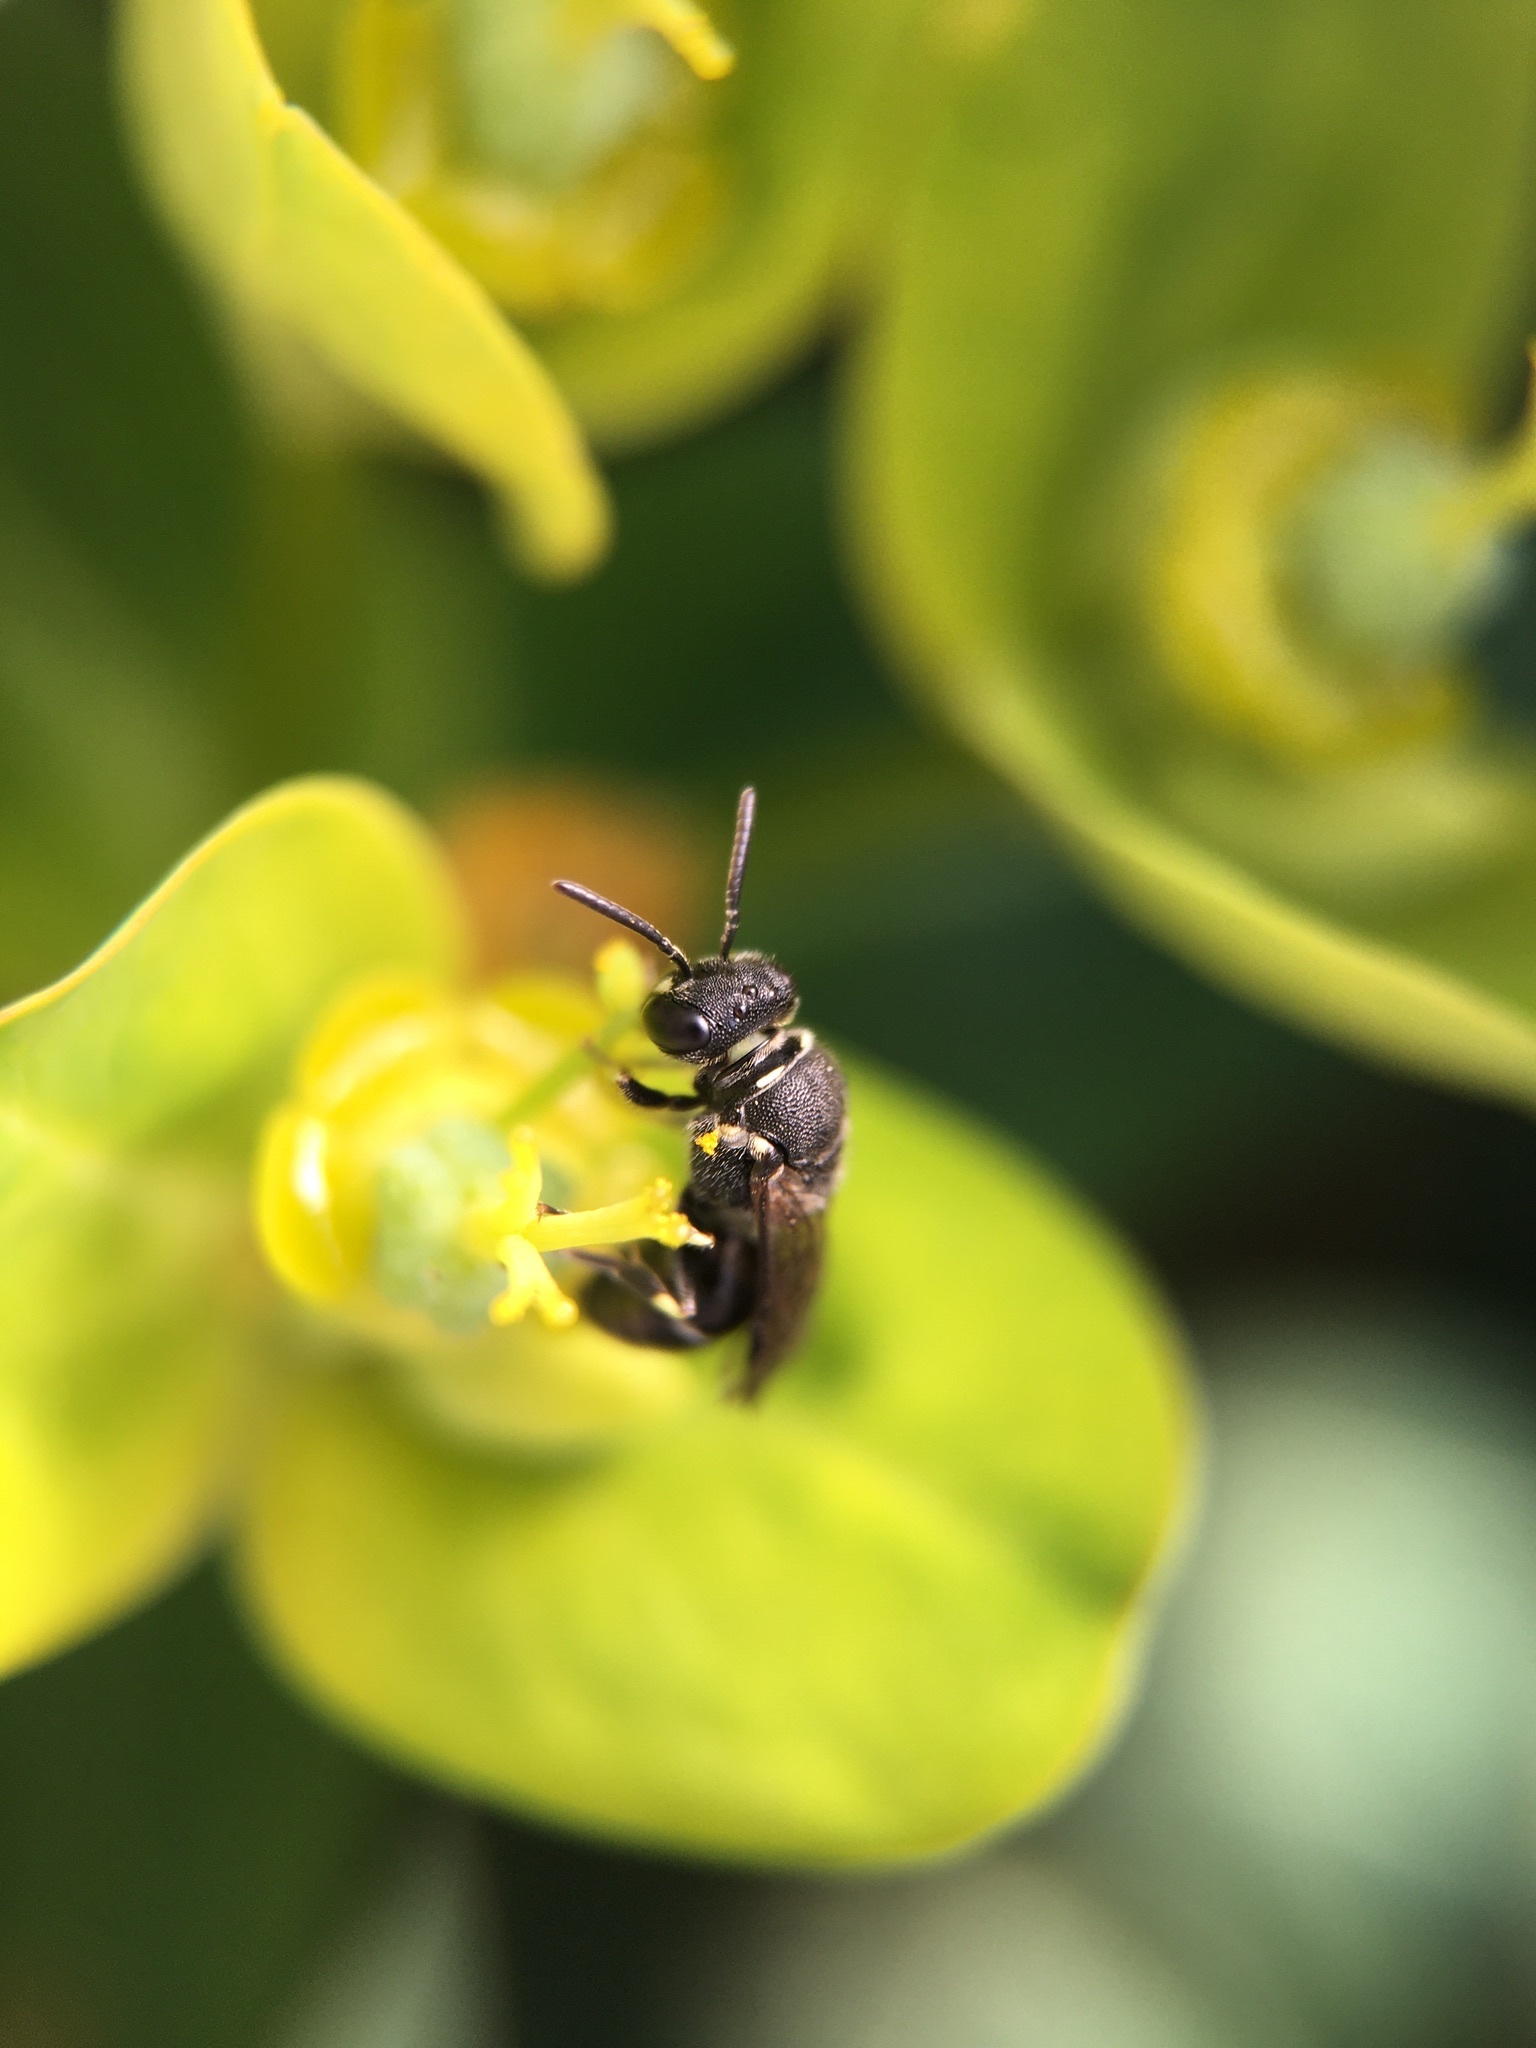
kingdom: Animalia
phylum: Arthropoda
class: Insecta
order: Hymenoptera
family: Colletidae
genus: Hylaeus
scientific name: Hylaeus
